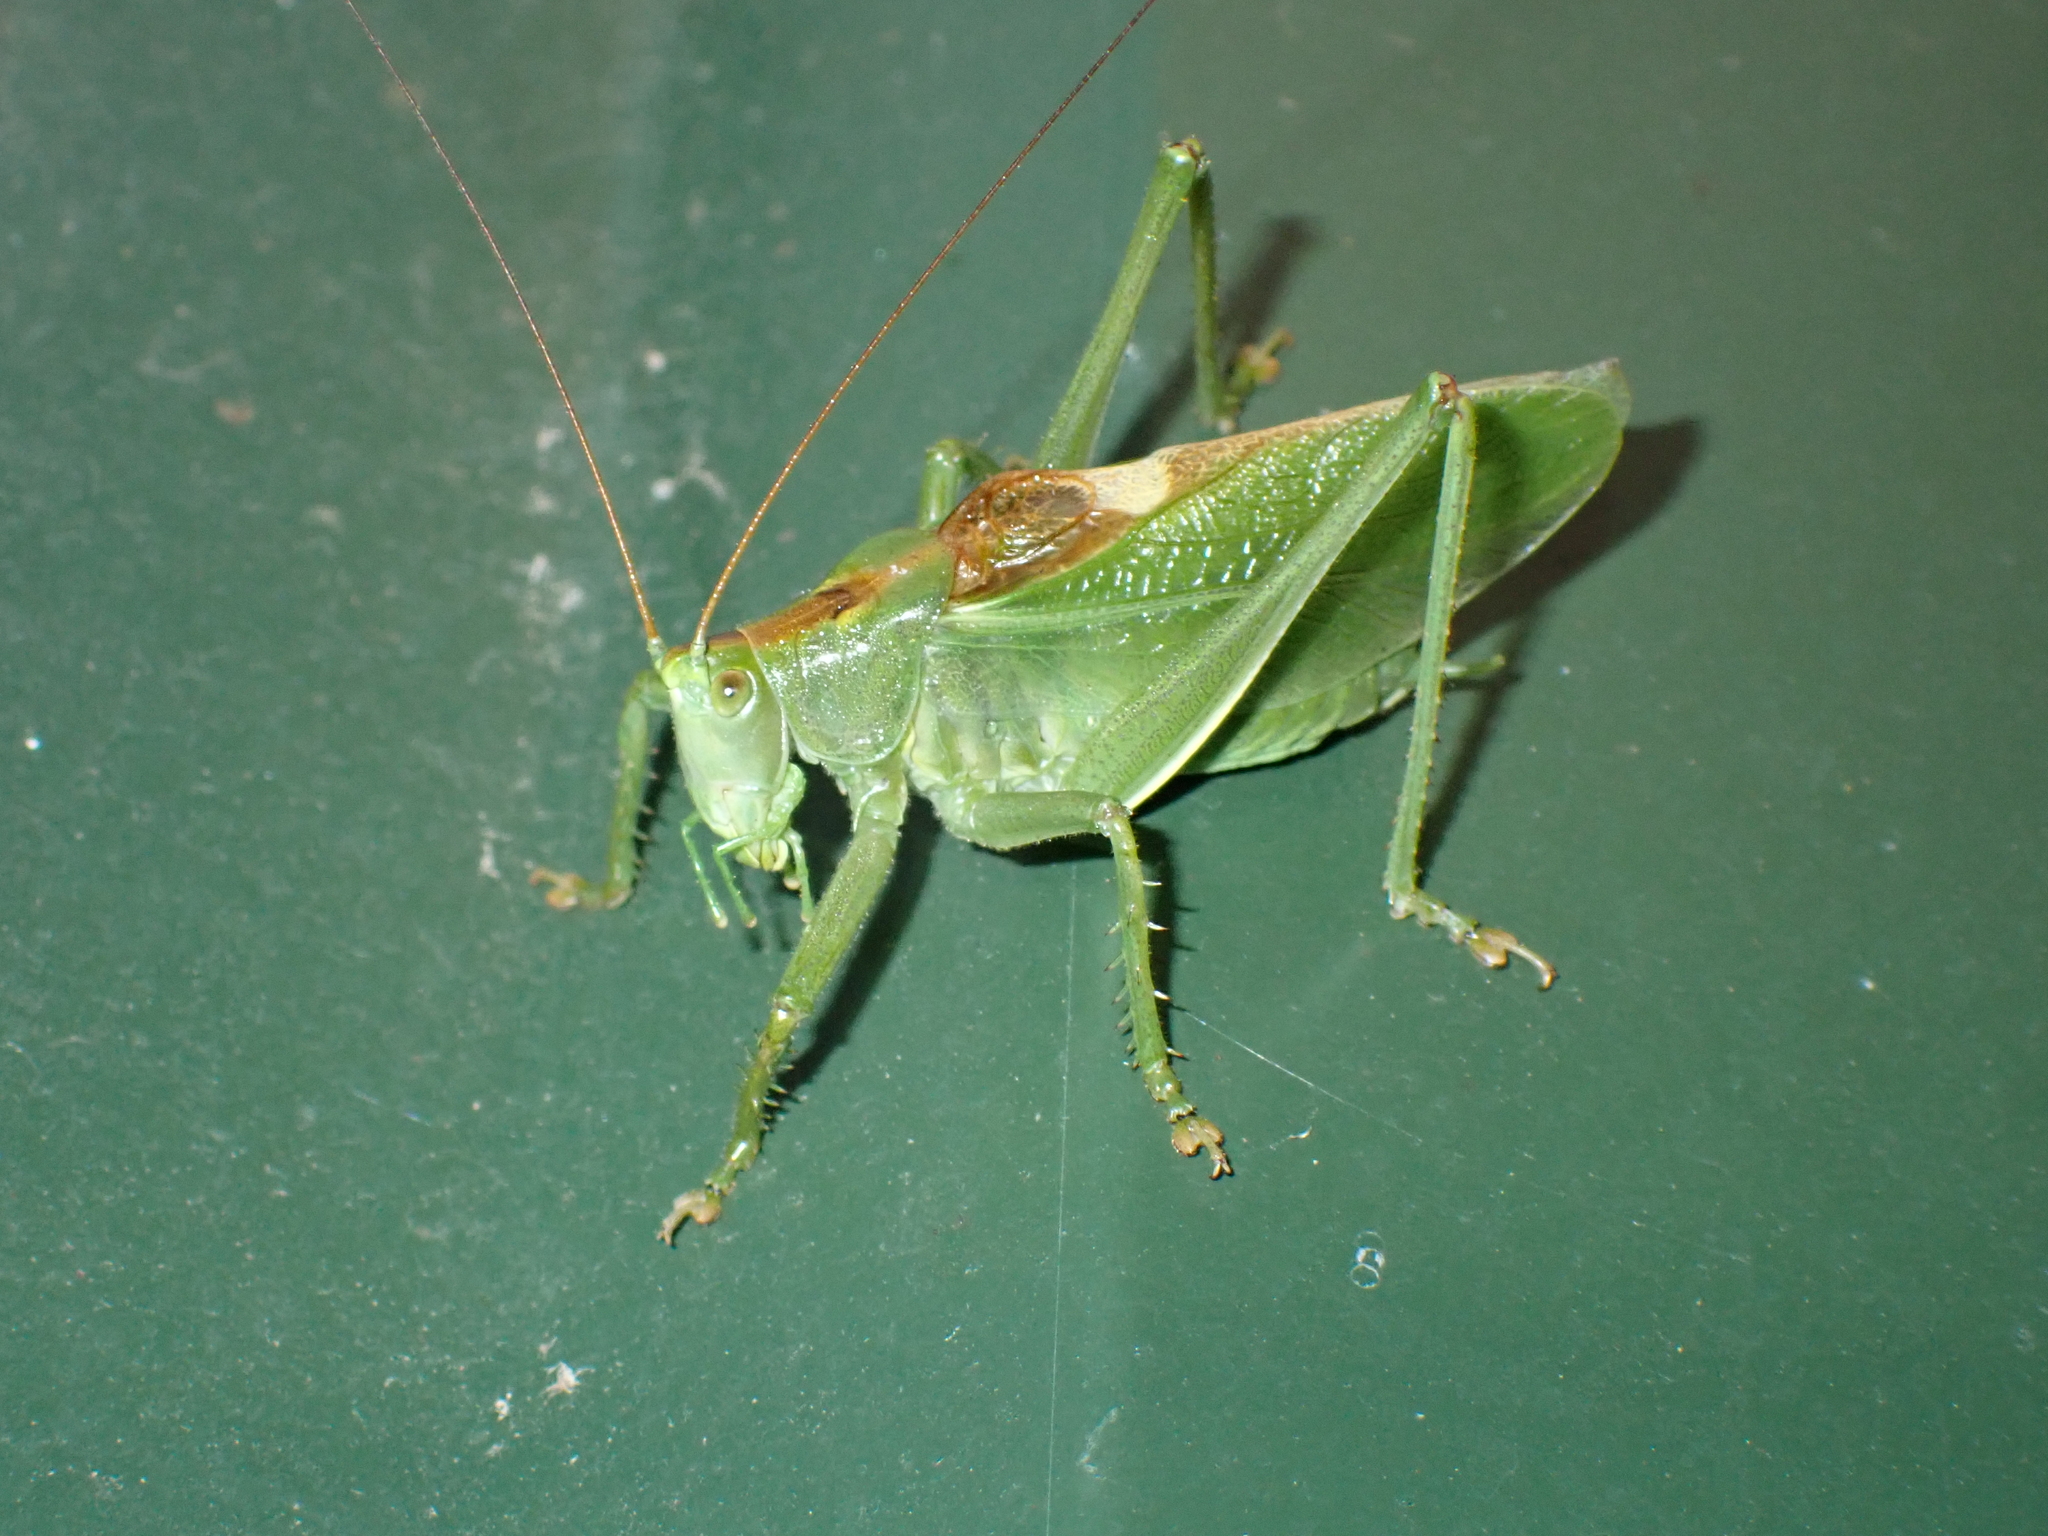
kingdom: Animalia
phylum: Arthropoda
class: Insecta
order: Orthoptera
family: Tettigoniidae
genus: Tettigonia
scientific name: Tettigonia cantans
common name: Upland green bush-cricket
